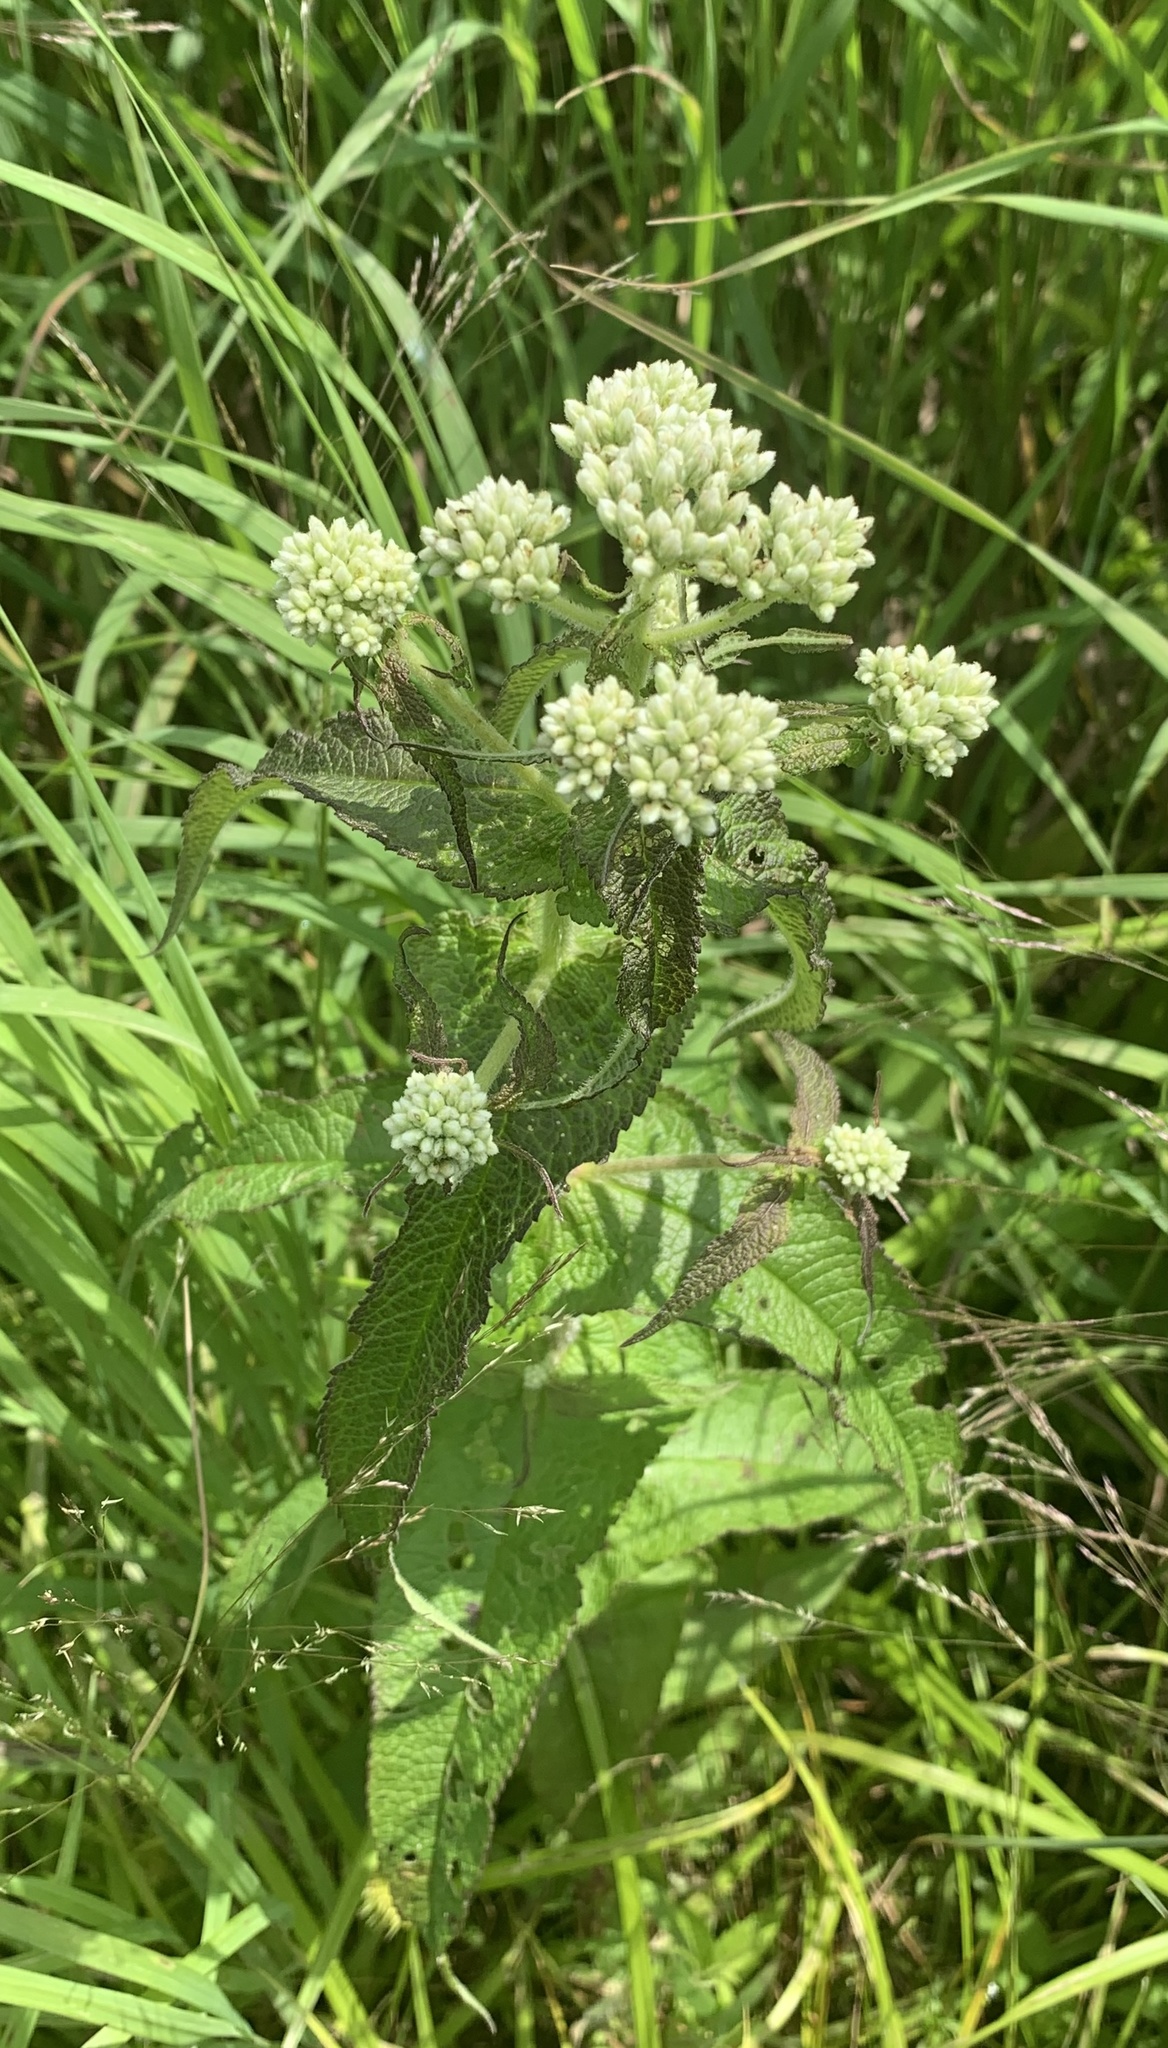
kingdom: Plantae
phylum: Tracheophyta
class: Magnoliopsida
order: Asterales
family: Asteraceae
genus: Eupatorium
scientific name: Eupatorium perfoliatum
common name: Boneset
